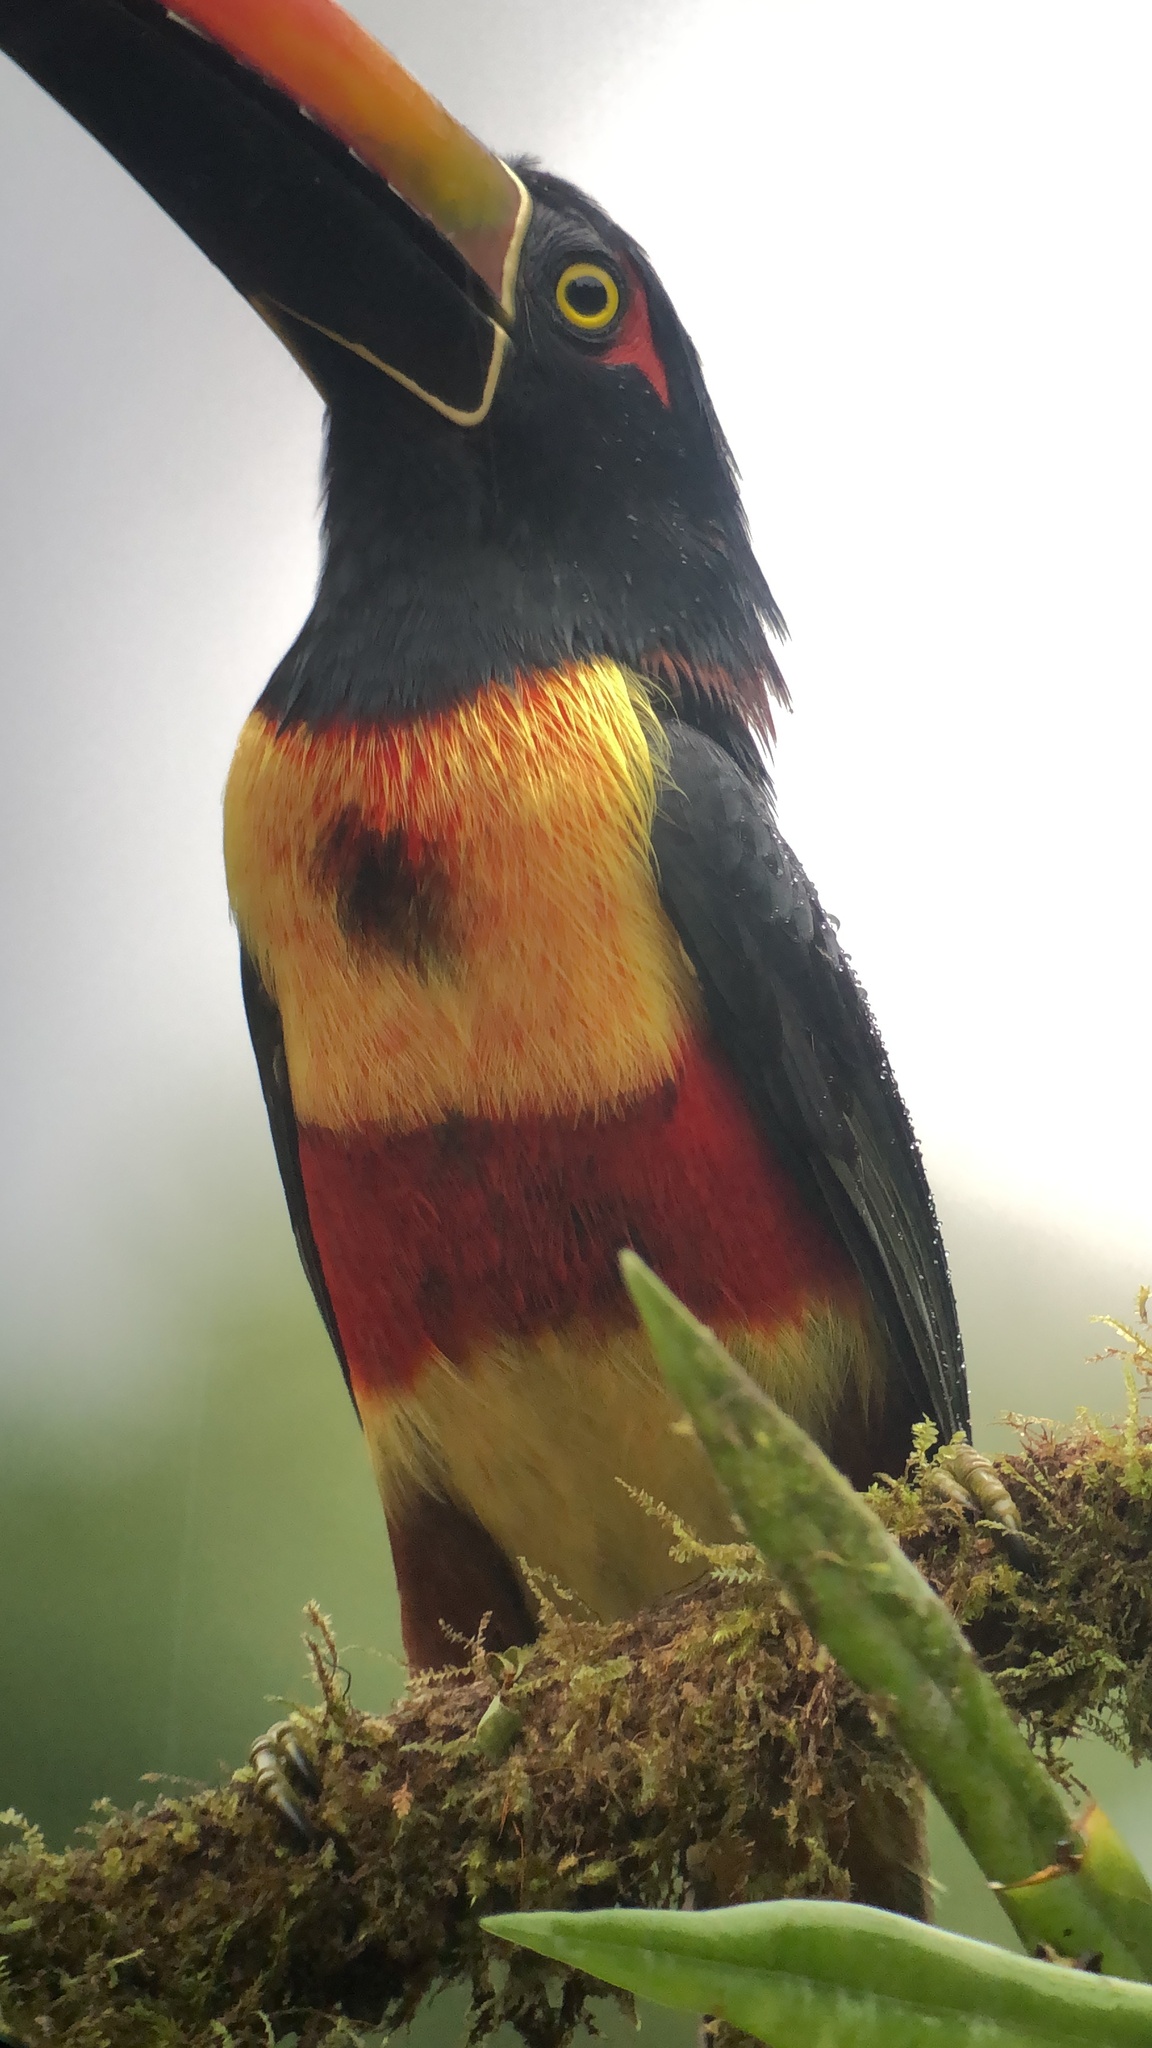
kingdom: Animalia
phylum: Chordata
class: Aves
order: Piciformes
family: Ramphastidae
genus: Pteroglossus
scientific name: Pteroglossus frantzii
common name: Fiery-billed aracari
